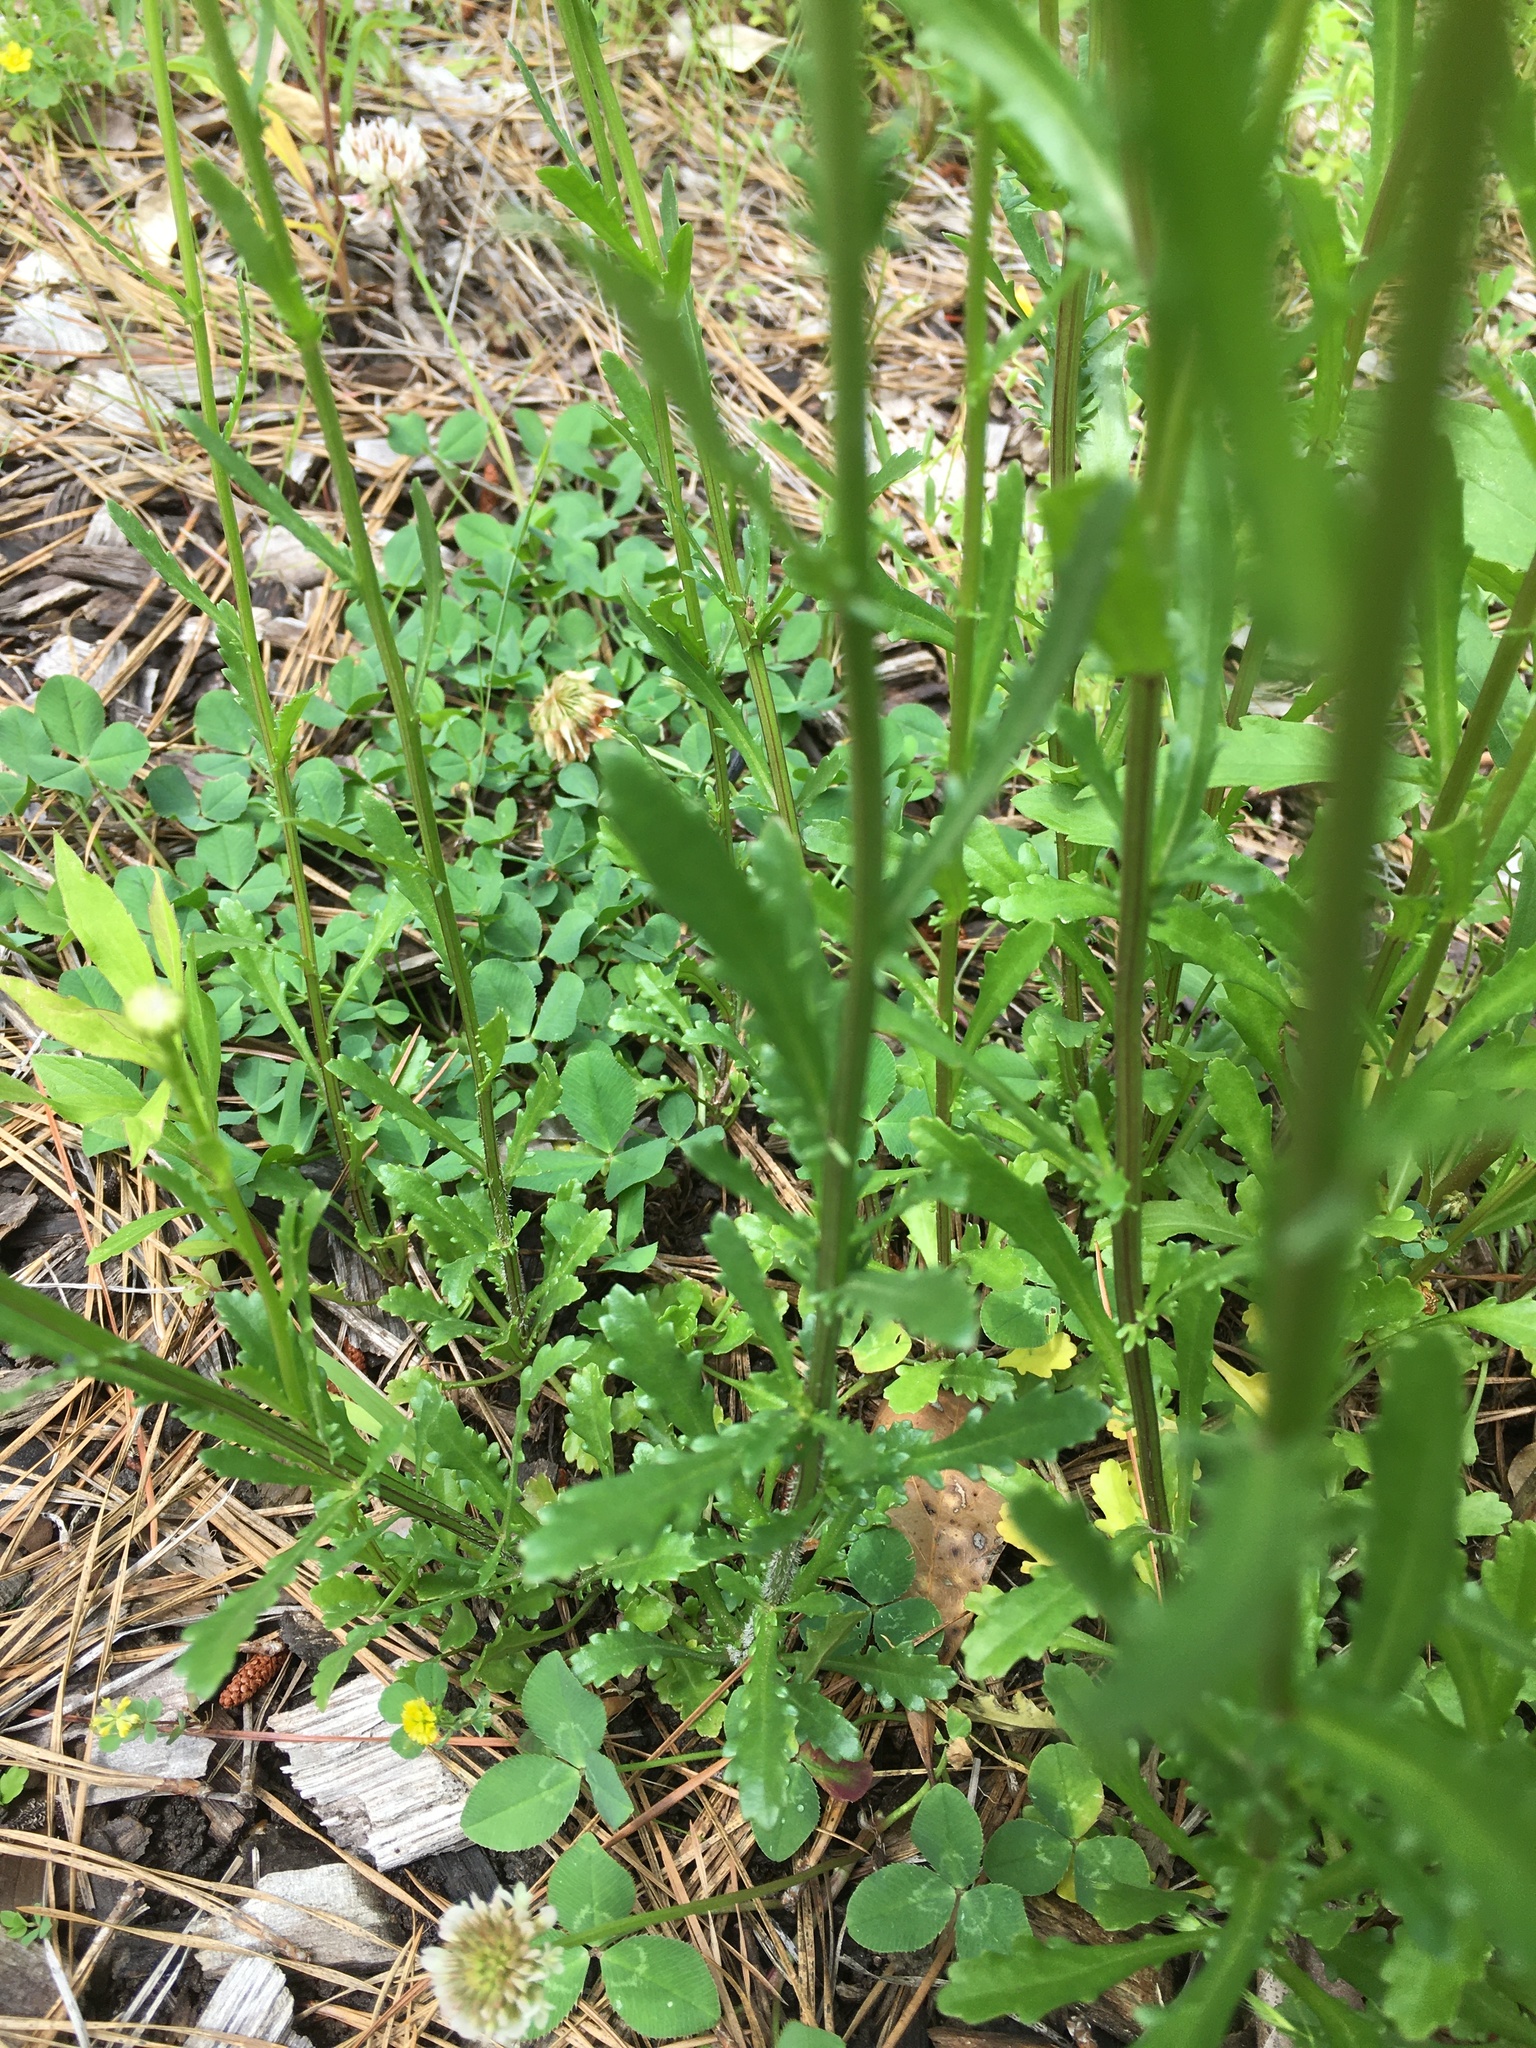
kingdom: Plantae
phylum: Tracheophyta
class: Magnoliopsida
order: Asterales
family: Asteraceae
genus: Leucanthemum
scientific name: Leucanthemum vulgare
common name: Oxeye daisy
